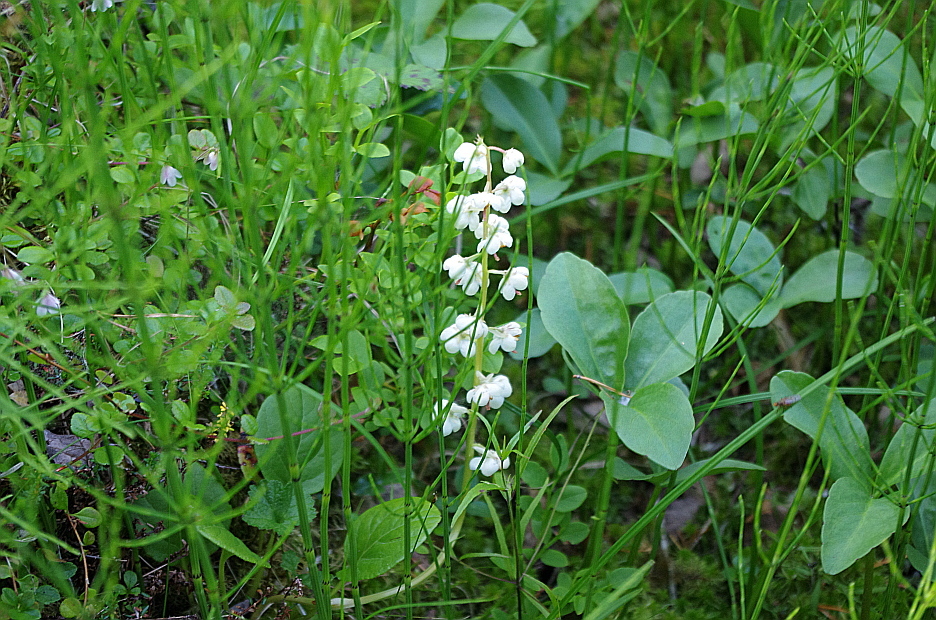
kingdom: Plantae
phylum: Tracheophyta
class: Magnoliopsida
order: Ericales
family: Ericaceae
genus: Pyrola
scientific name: Pyrola rotundifolia
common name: Round-leaved wintergreen
